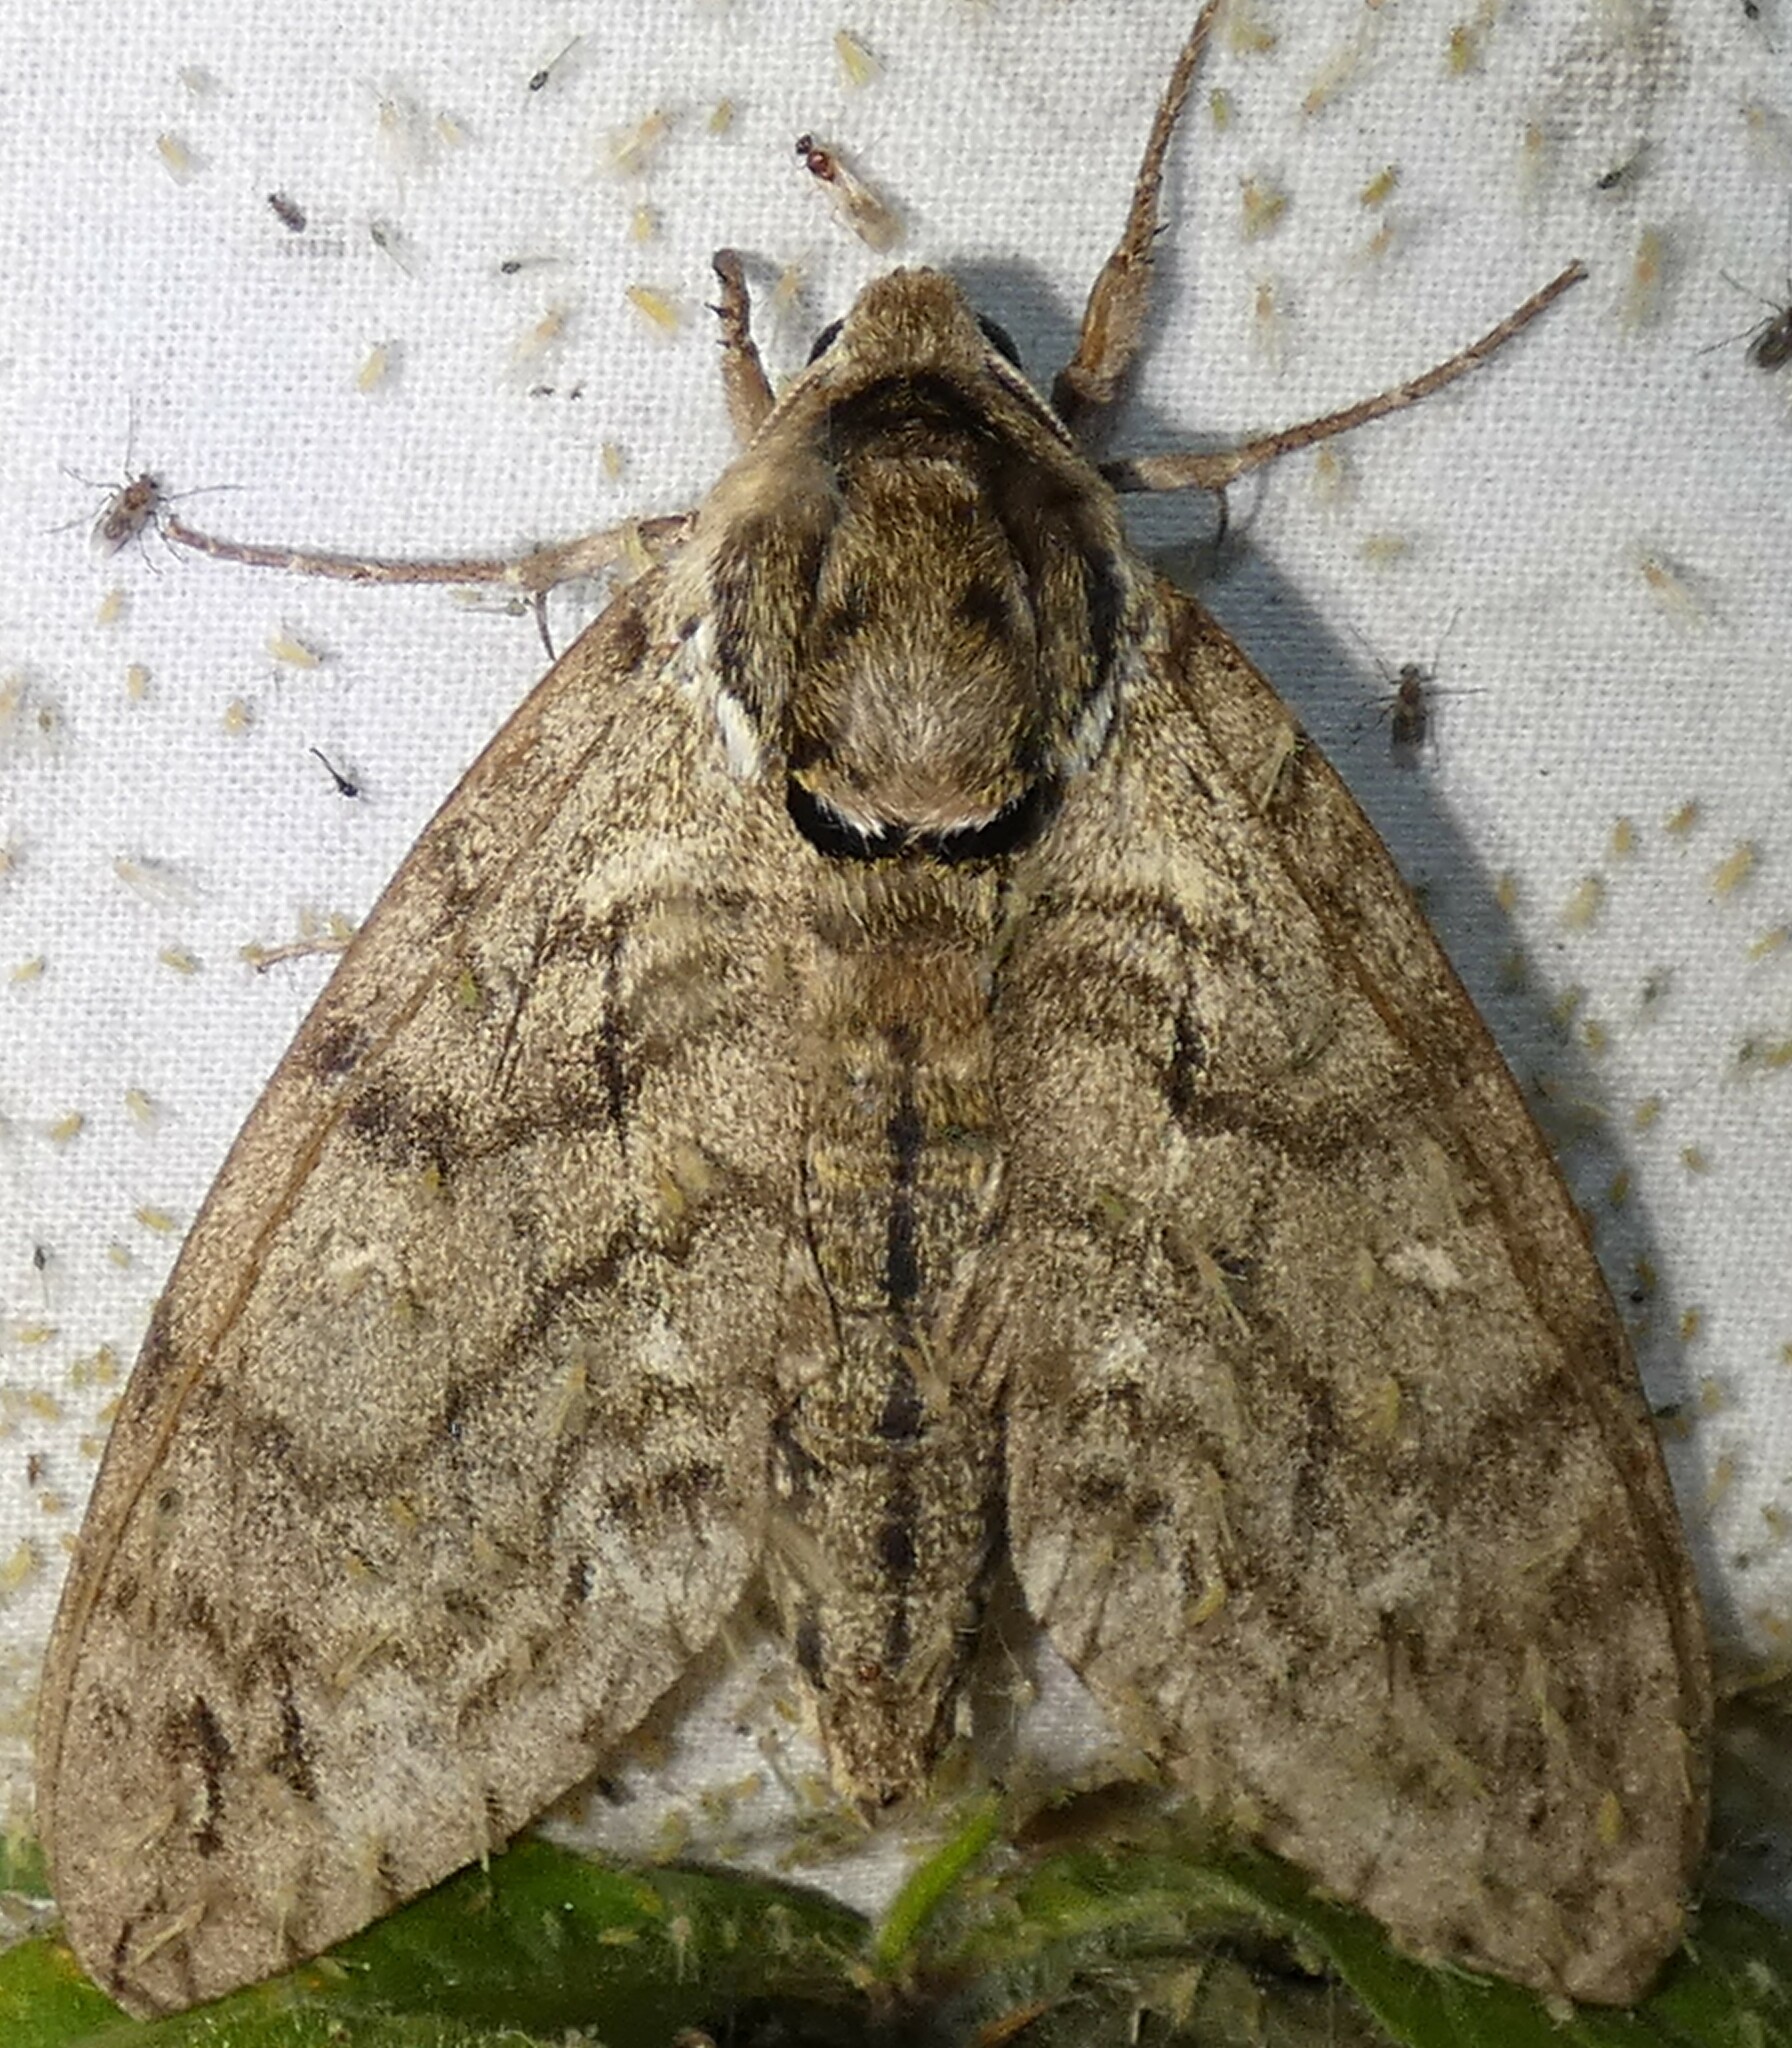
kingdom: Animalia
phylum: Arthropoda
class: Insecta
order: Lepidoptera
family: Sphingidae
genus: Ceratomia
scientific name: Ceratomia undulosa
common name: Waved sphinx
